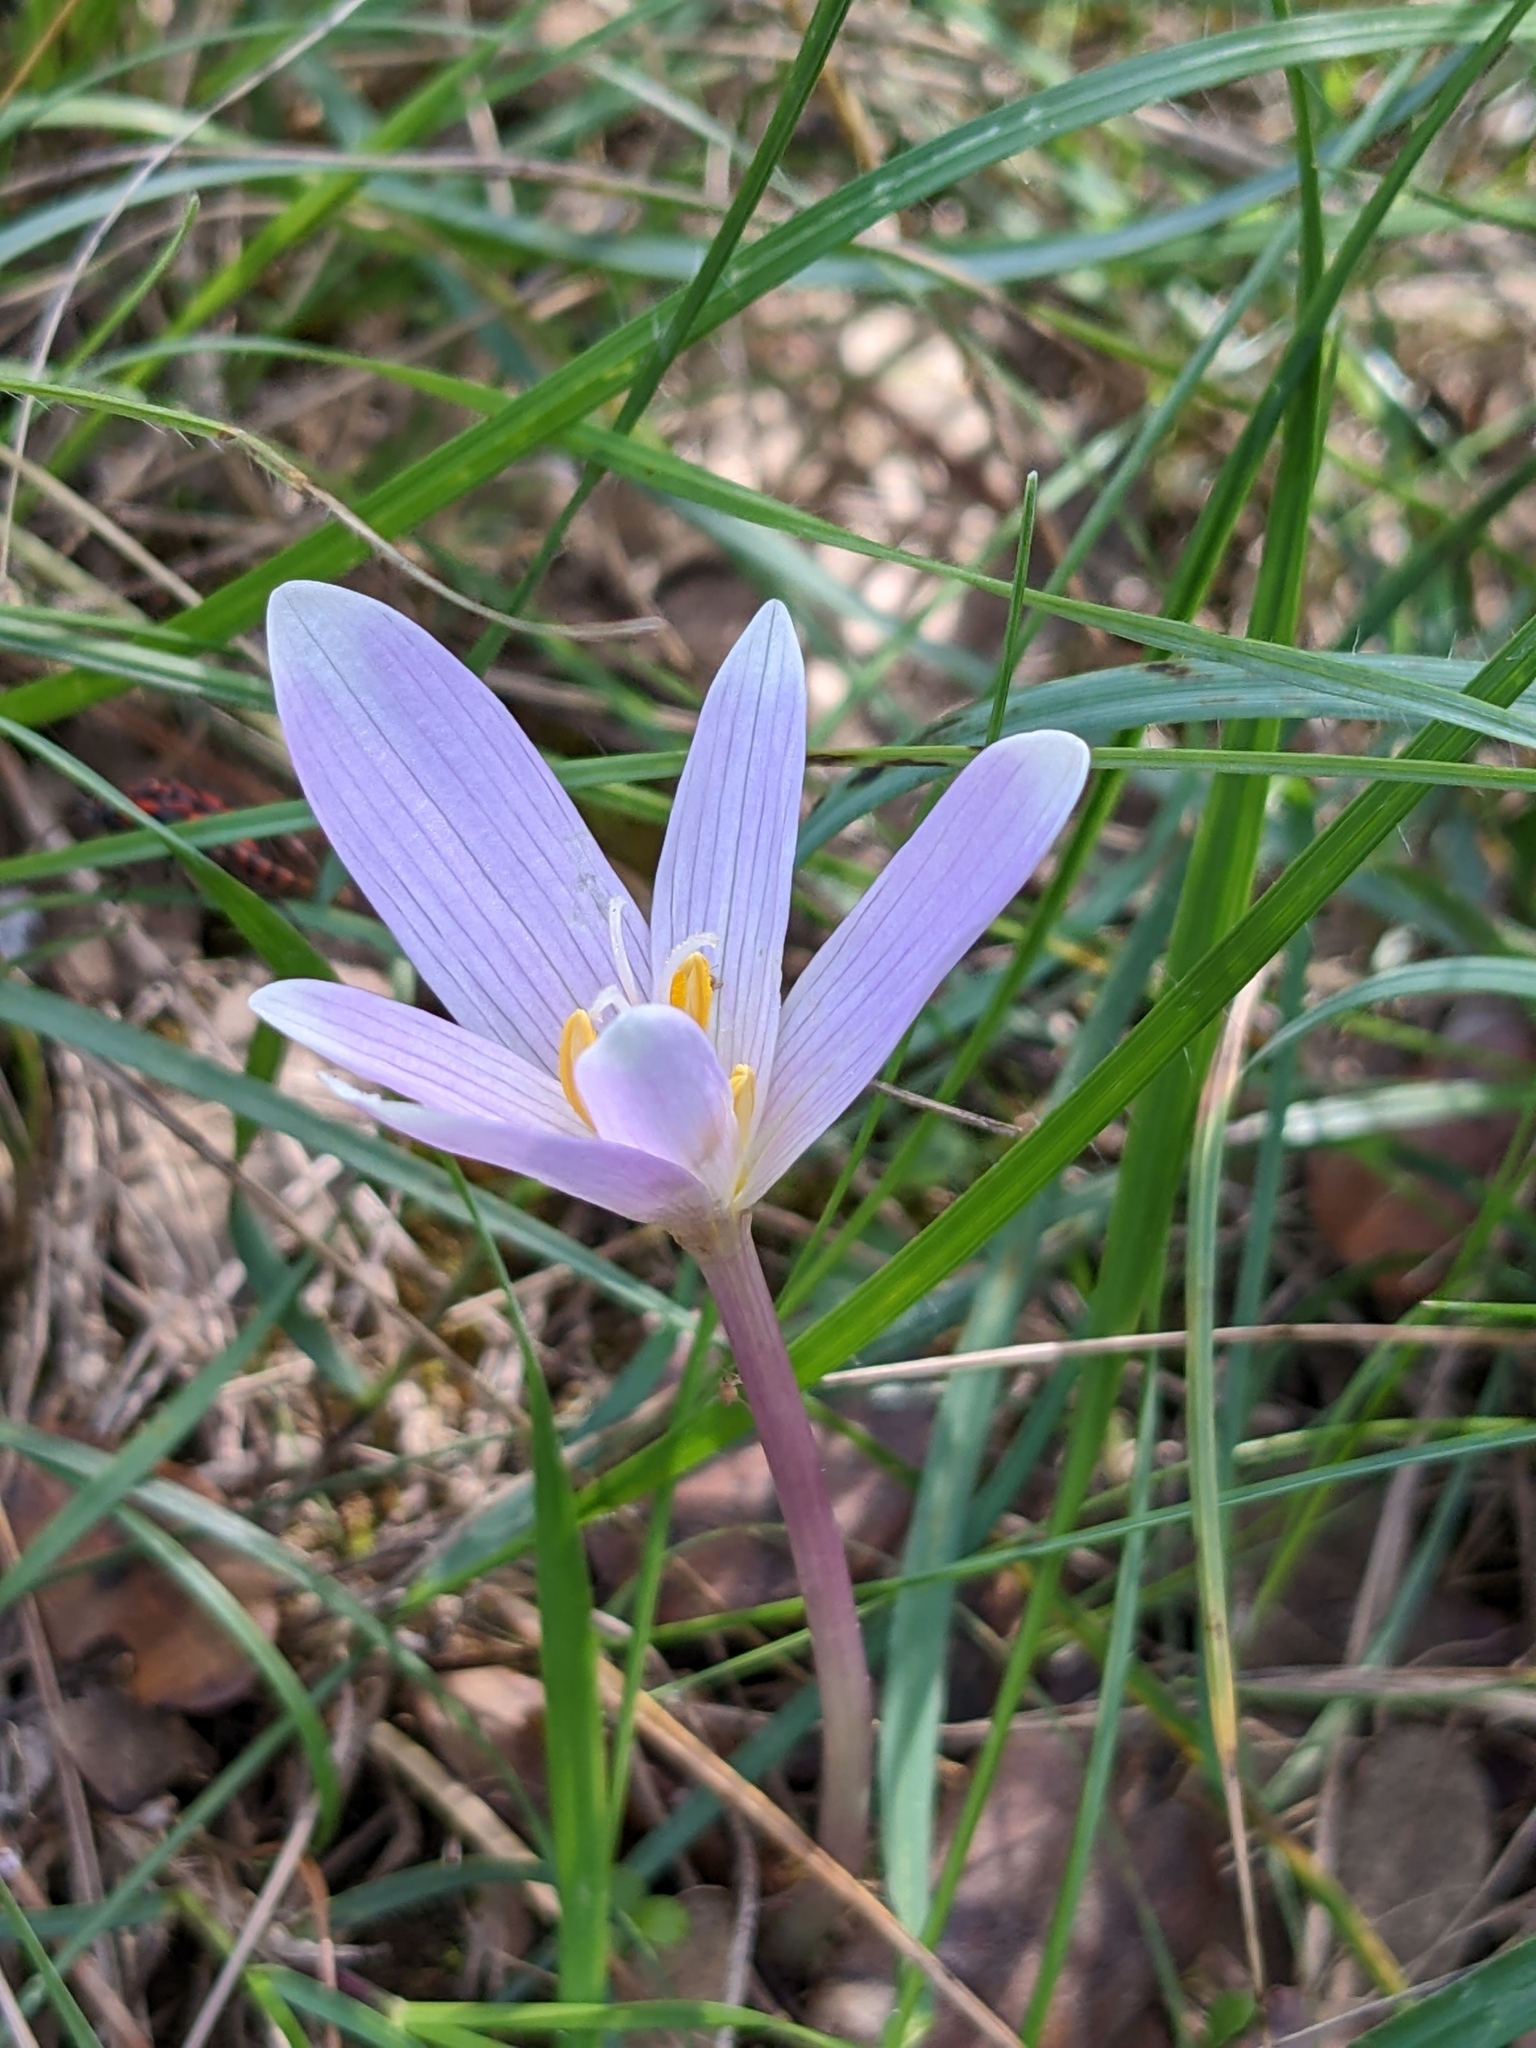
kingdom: Plantae
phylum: Tracheophyta
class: Liliopsida
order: Liliales
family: Colchicaceae
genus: Colchicum
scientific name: Colchicum longifolium
